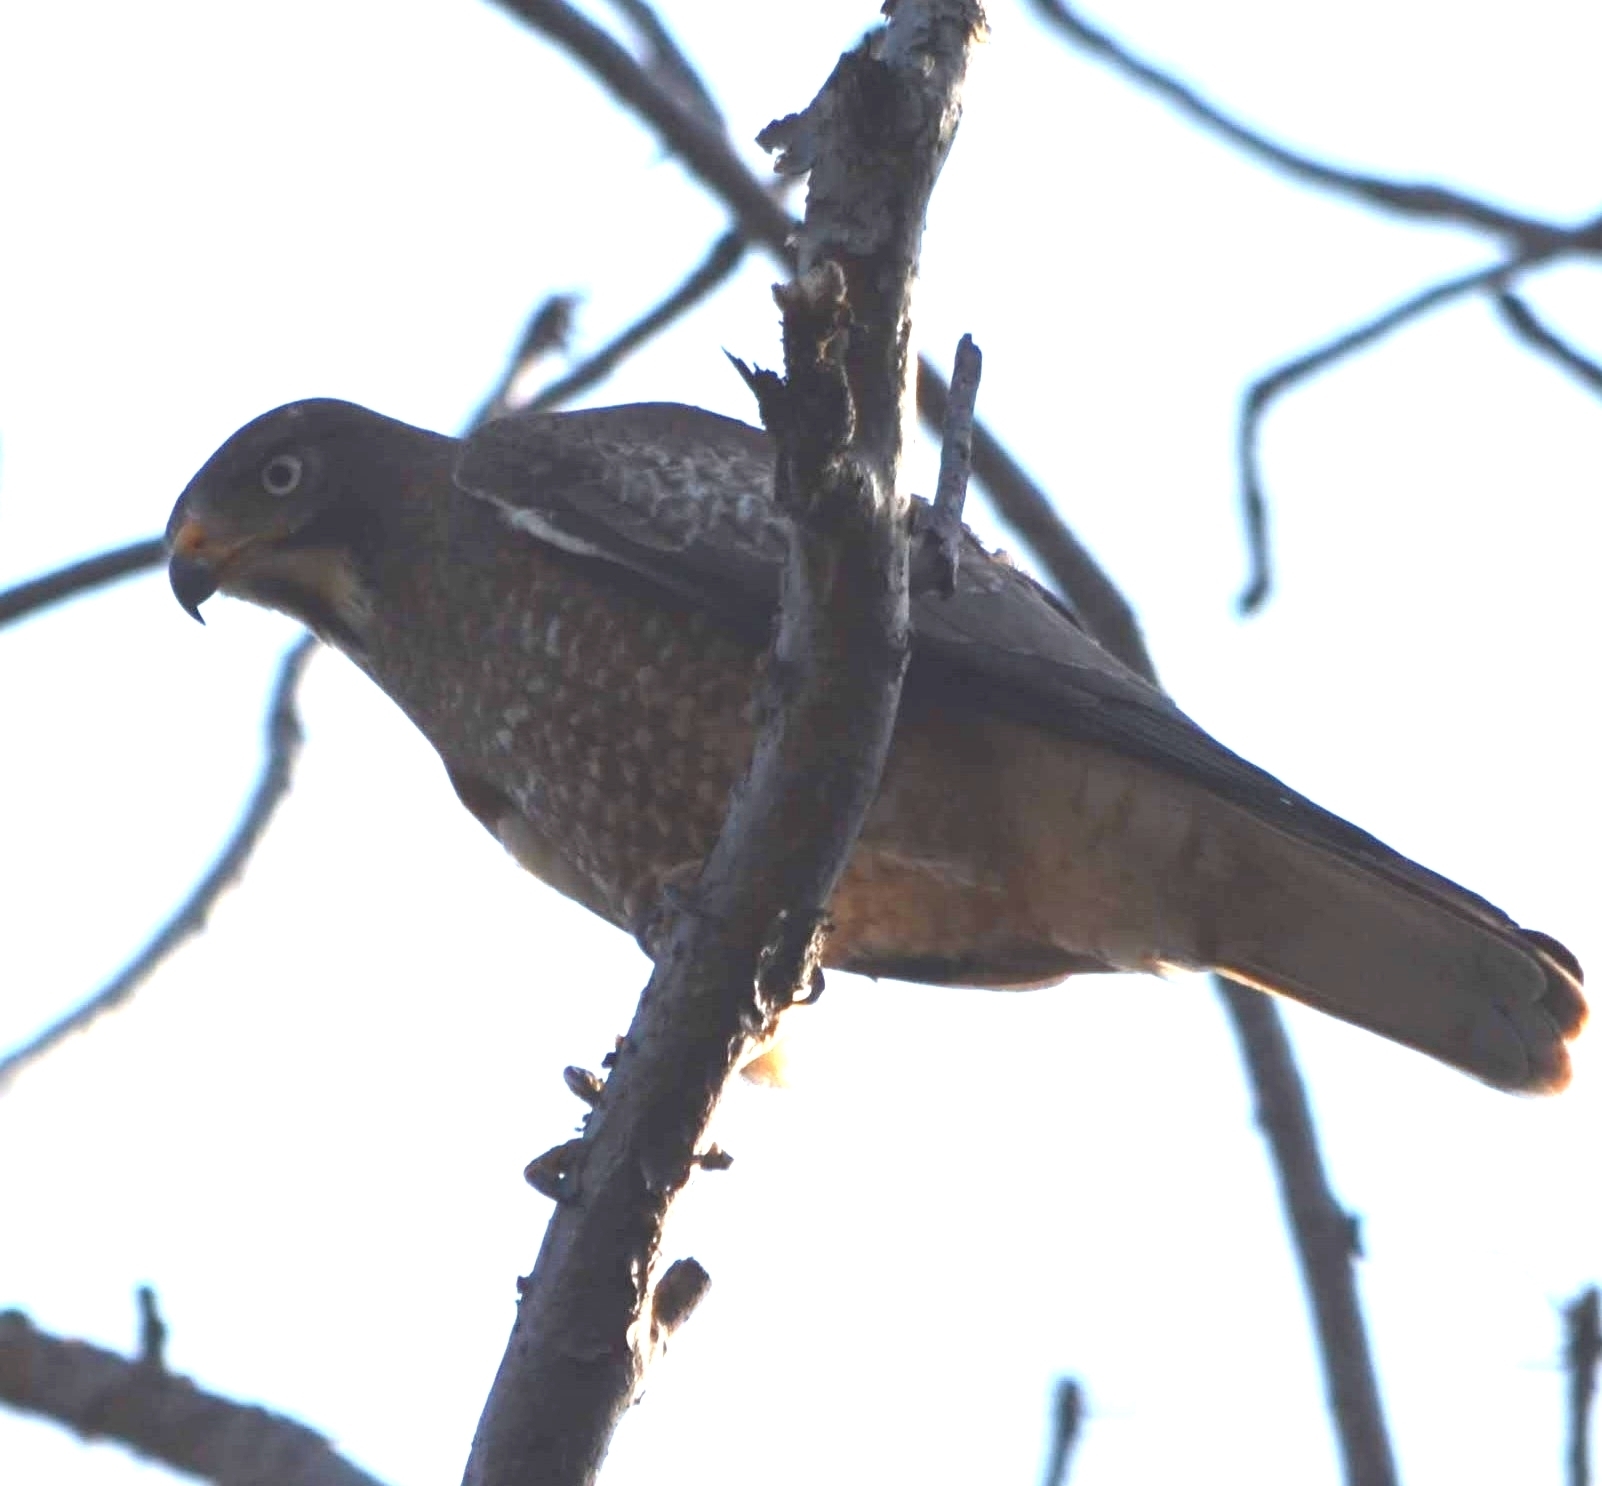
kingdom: Animalia
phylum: Chordata
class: Aves
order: Accipitriformes
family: Accipitridae
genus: Butastur
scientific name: Butastur teesa
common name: White-eyed buzzard
